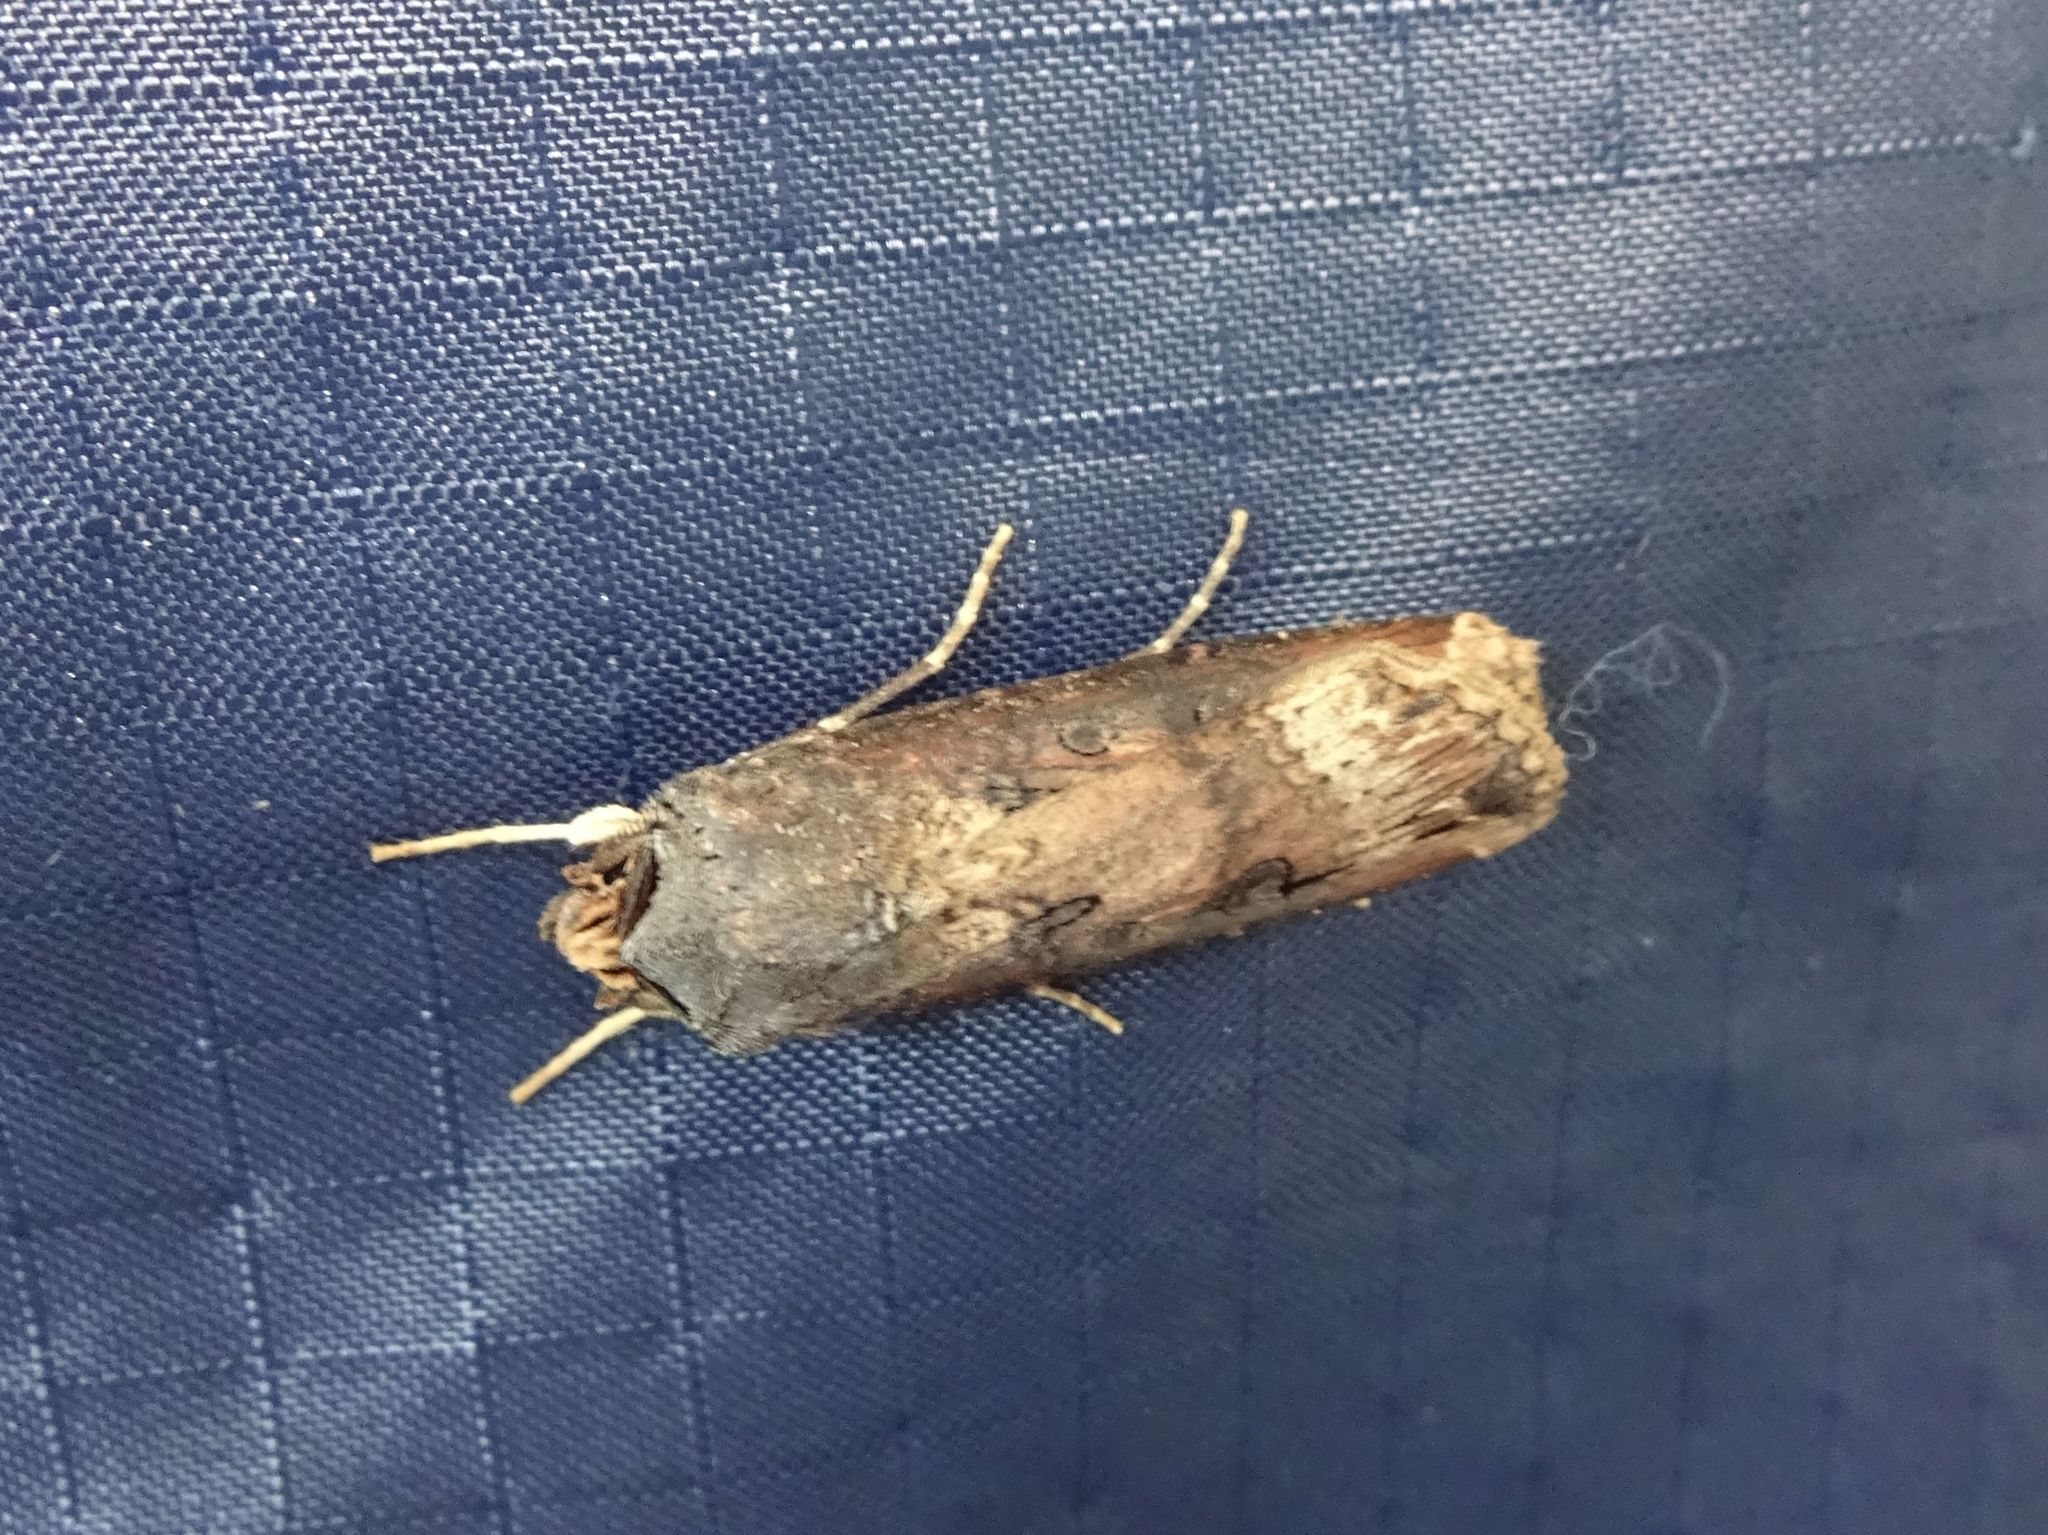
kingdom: Animalia
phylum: Arthropoda
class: Insecta
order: Lepidoptera
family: Noctuidae
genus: Agrotis
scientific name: Agrotis ipsilon
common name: Dark sword-grass
